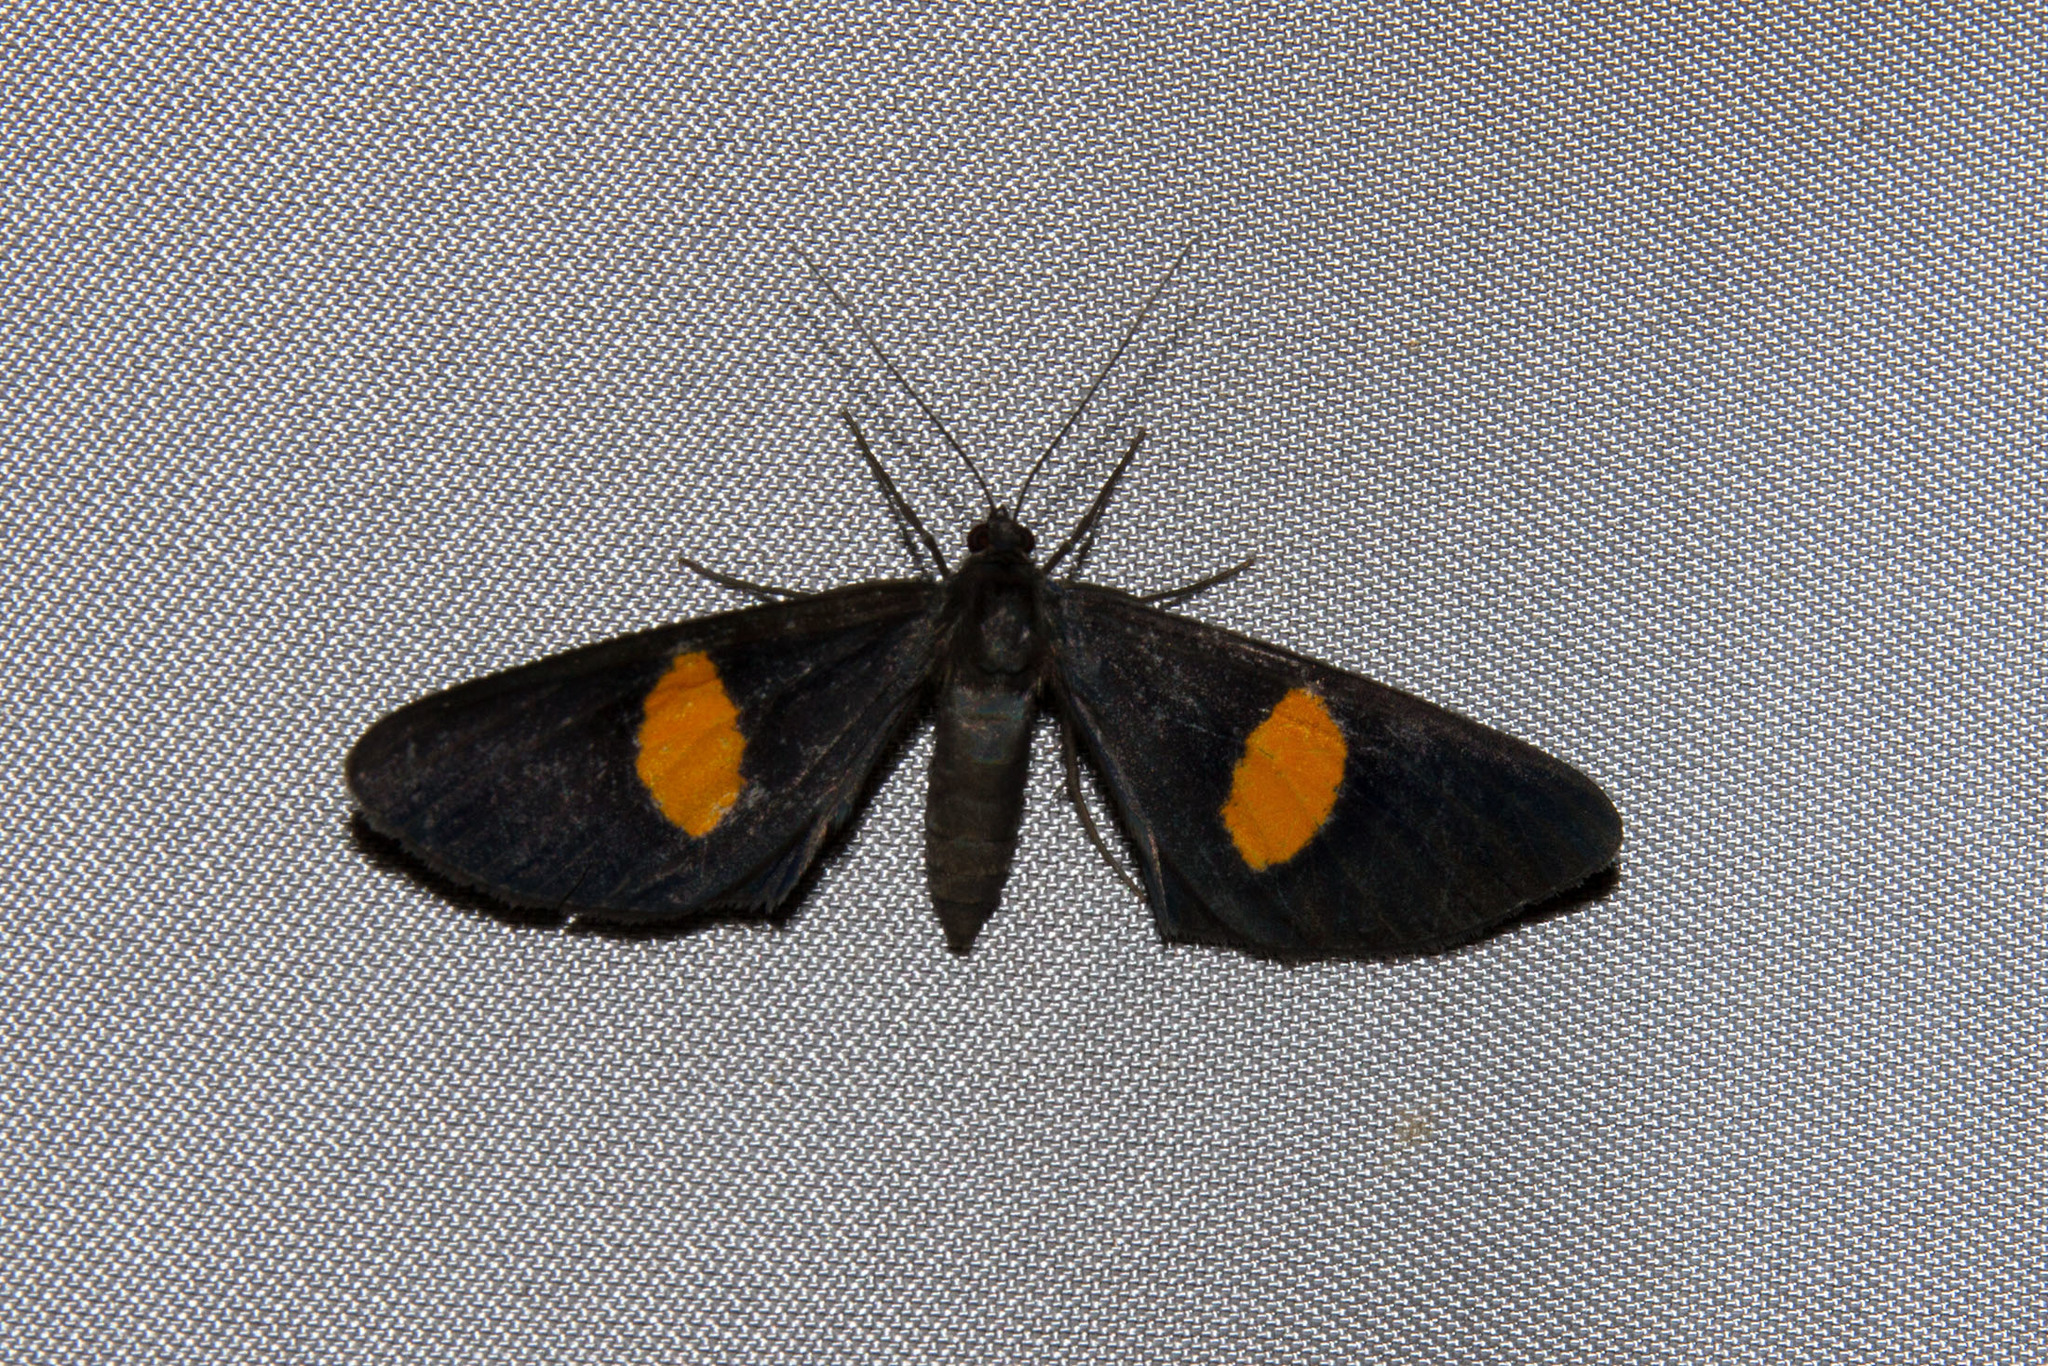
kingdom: Animalia
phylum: Arthropoda
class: Insecta
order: Lepidoptera
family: Geometridae
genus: Craspedosis
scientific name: Craspedosis aurigutta
